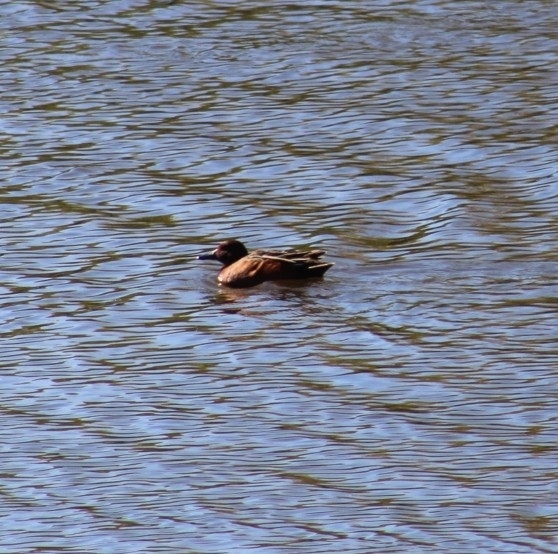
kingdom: Animalia
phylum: Chordata
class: Aves
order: Anseriformes
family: Anatidae
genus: Spatula
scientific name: Spatula cyanoptera
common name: Cinnamon teal
